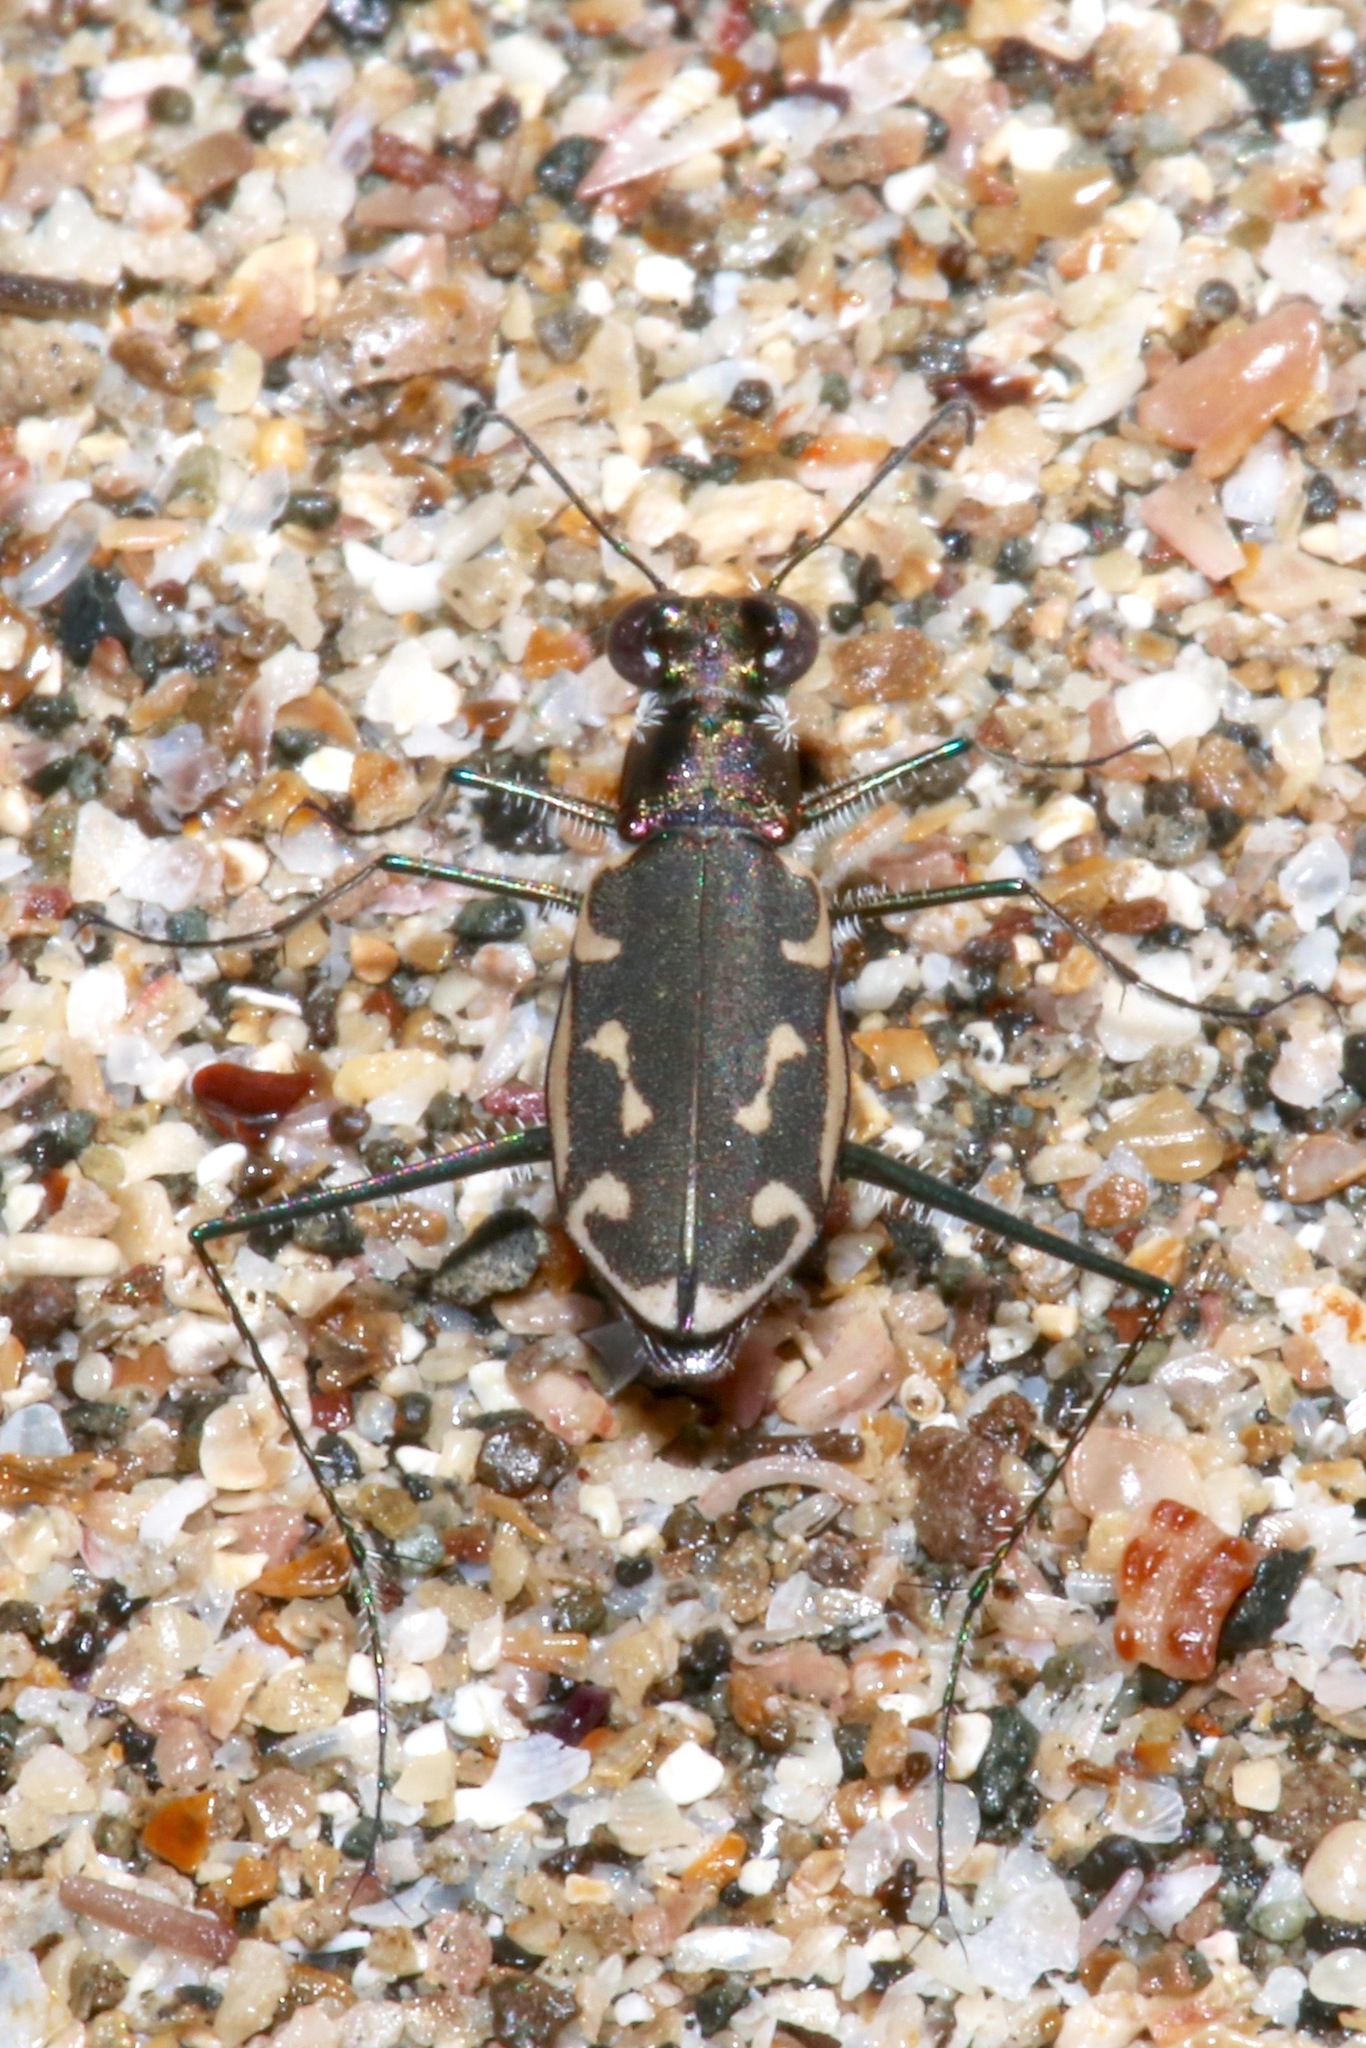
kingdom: Animalia
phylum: Arthropoda
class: Insecta
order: Coleoptera
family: Carabidae
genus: Opilidia
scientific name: Opilidia macrocnema
